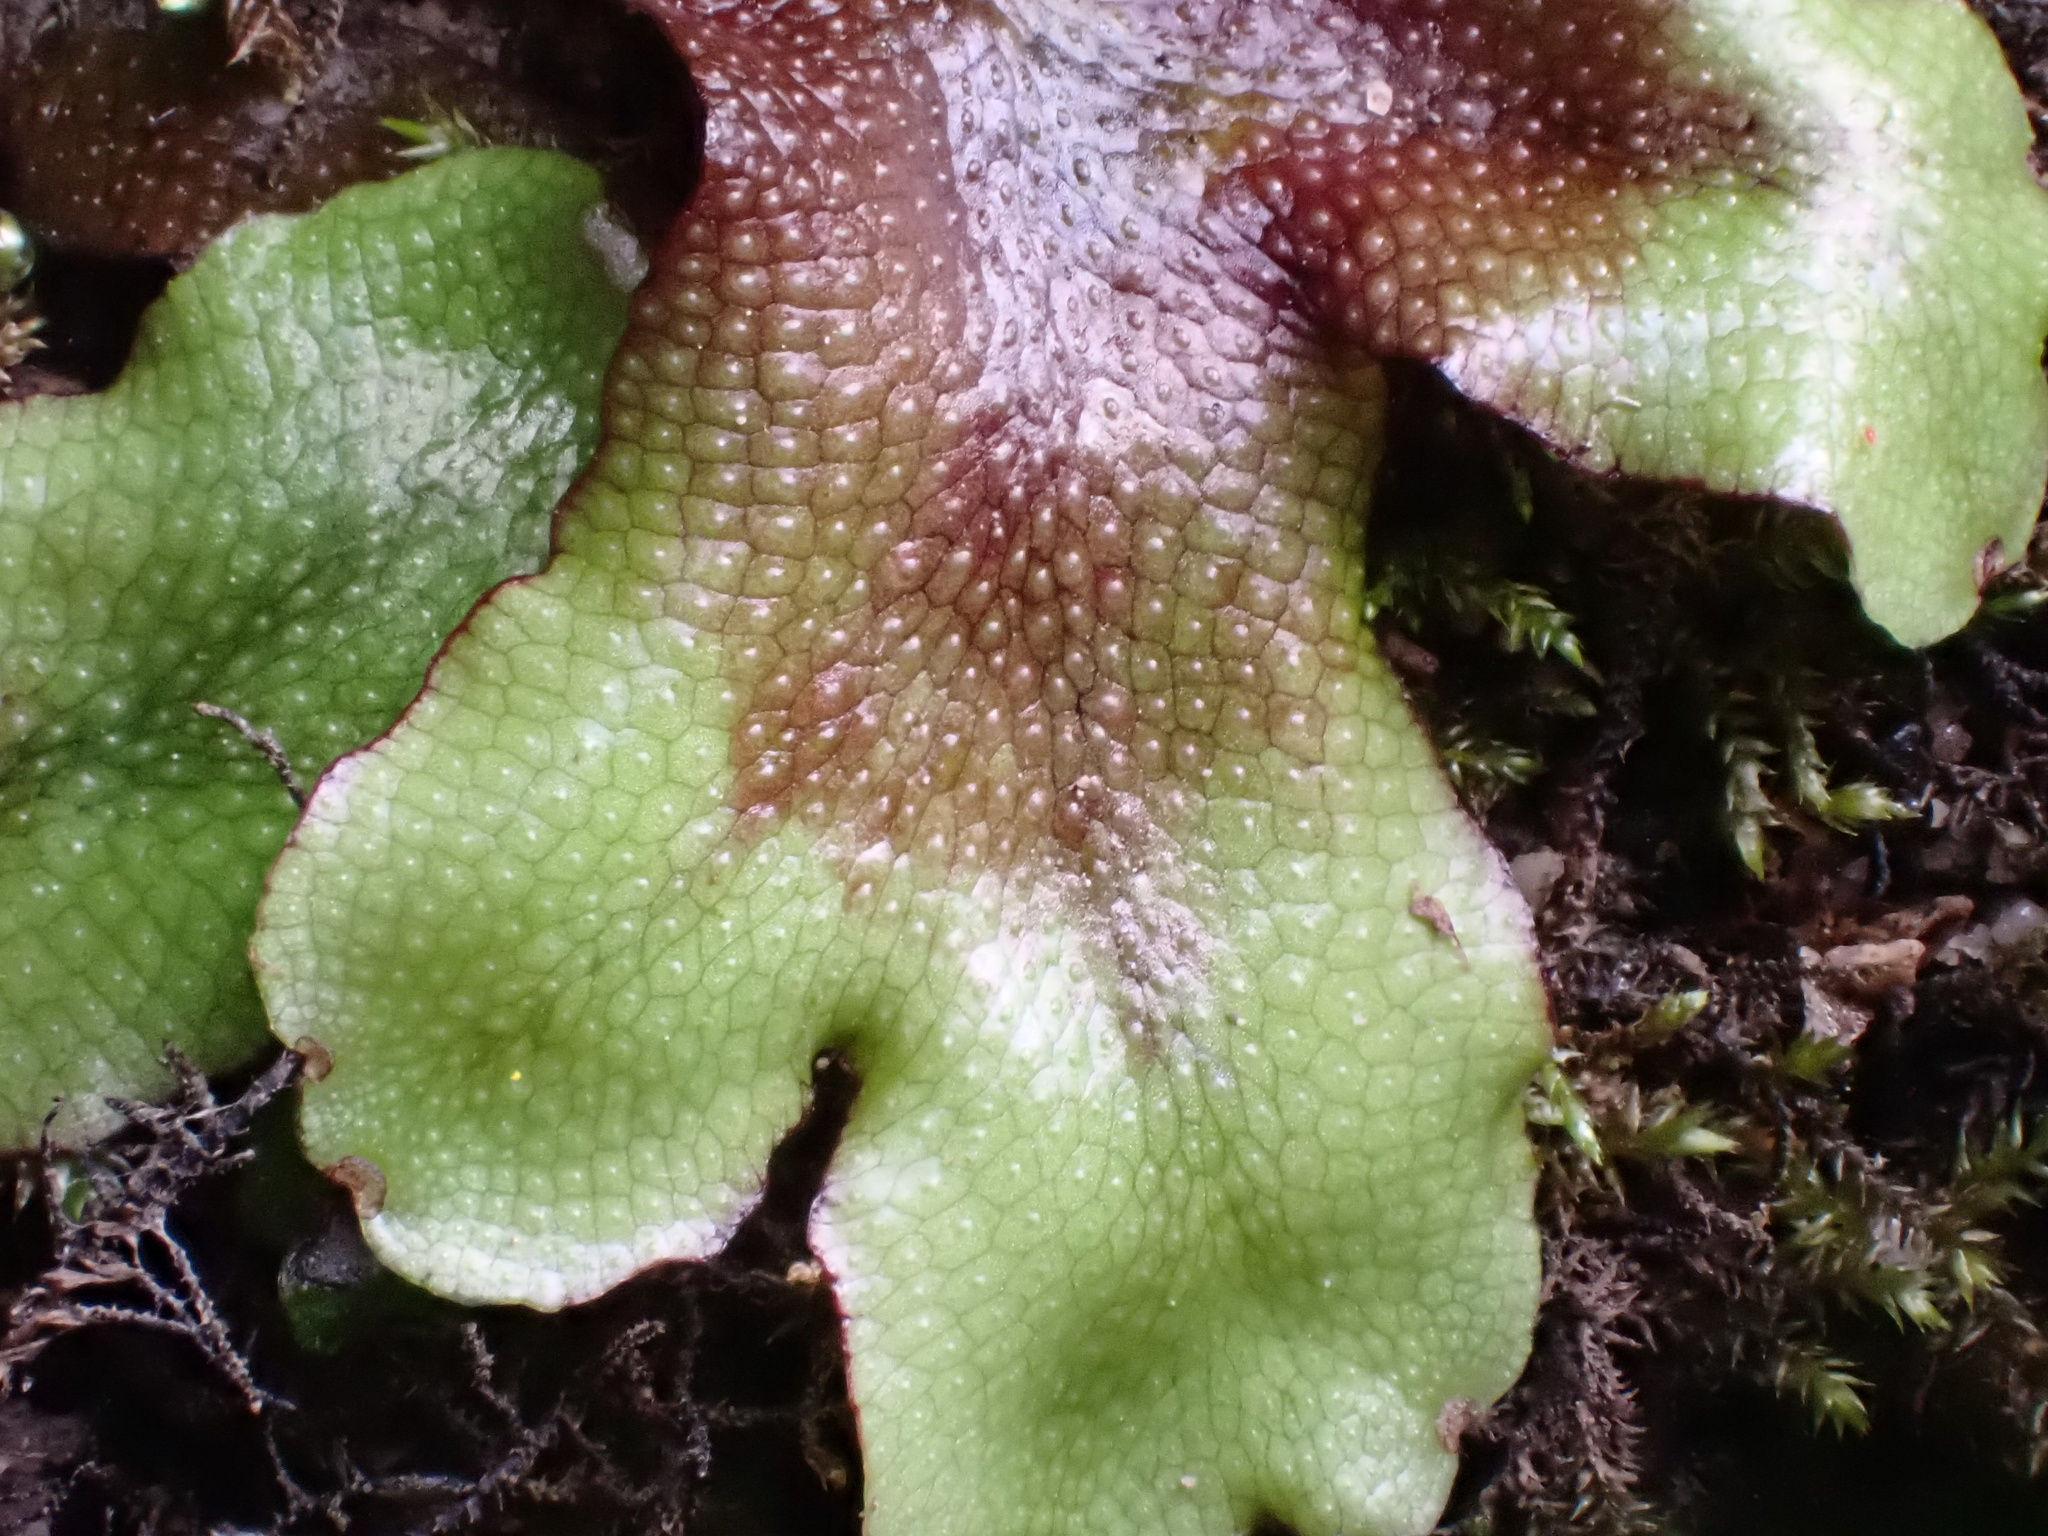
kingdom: Plantae
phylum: Marchantiophyta
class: Marchantiopsida
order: Marchantiales
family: Conocephalaceae
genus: Conocephalum
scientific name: Conocephalum salebrosum
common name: Cat-tongue liverwort
